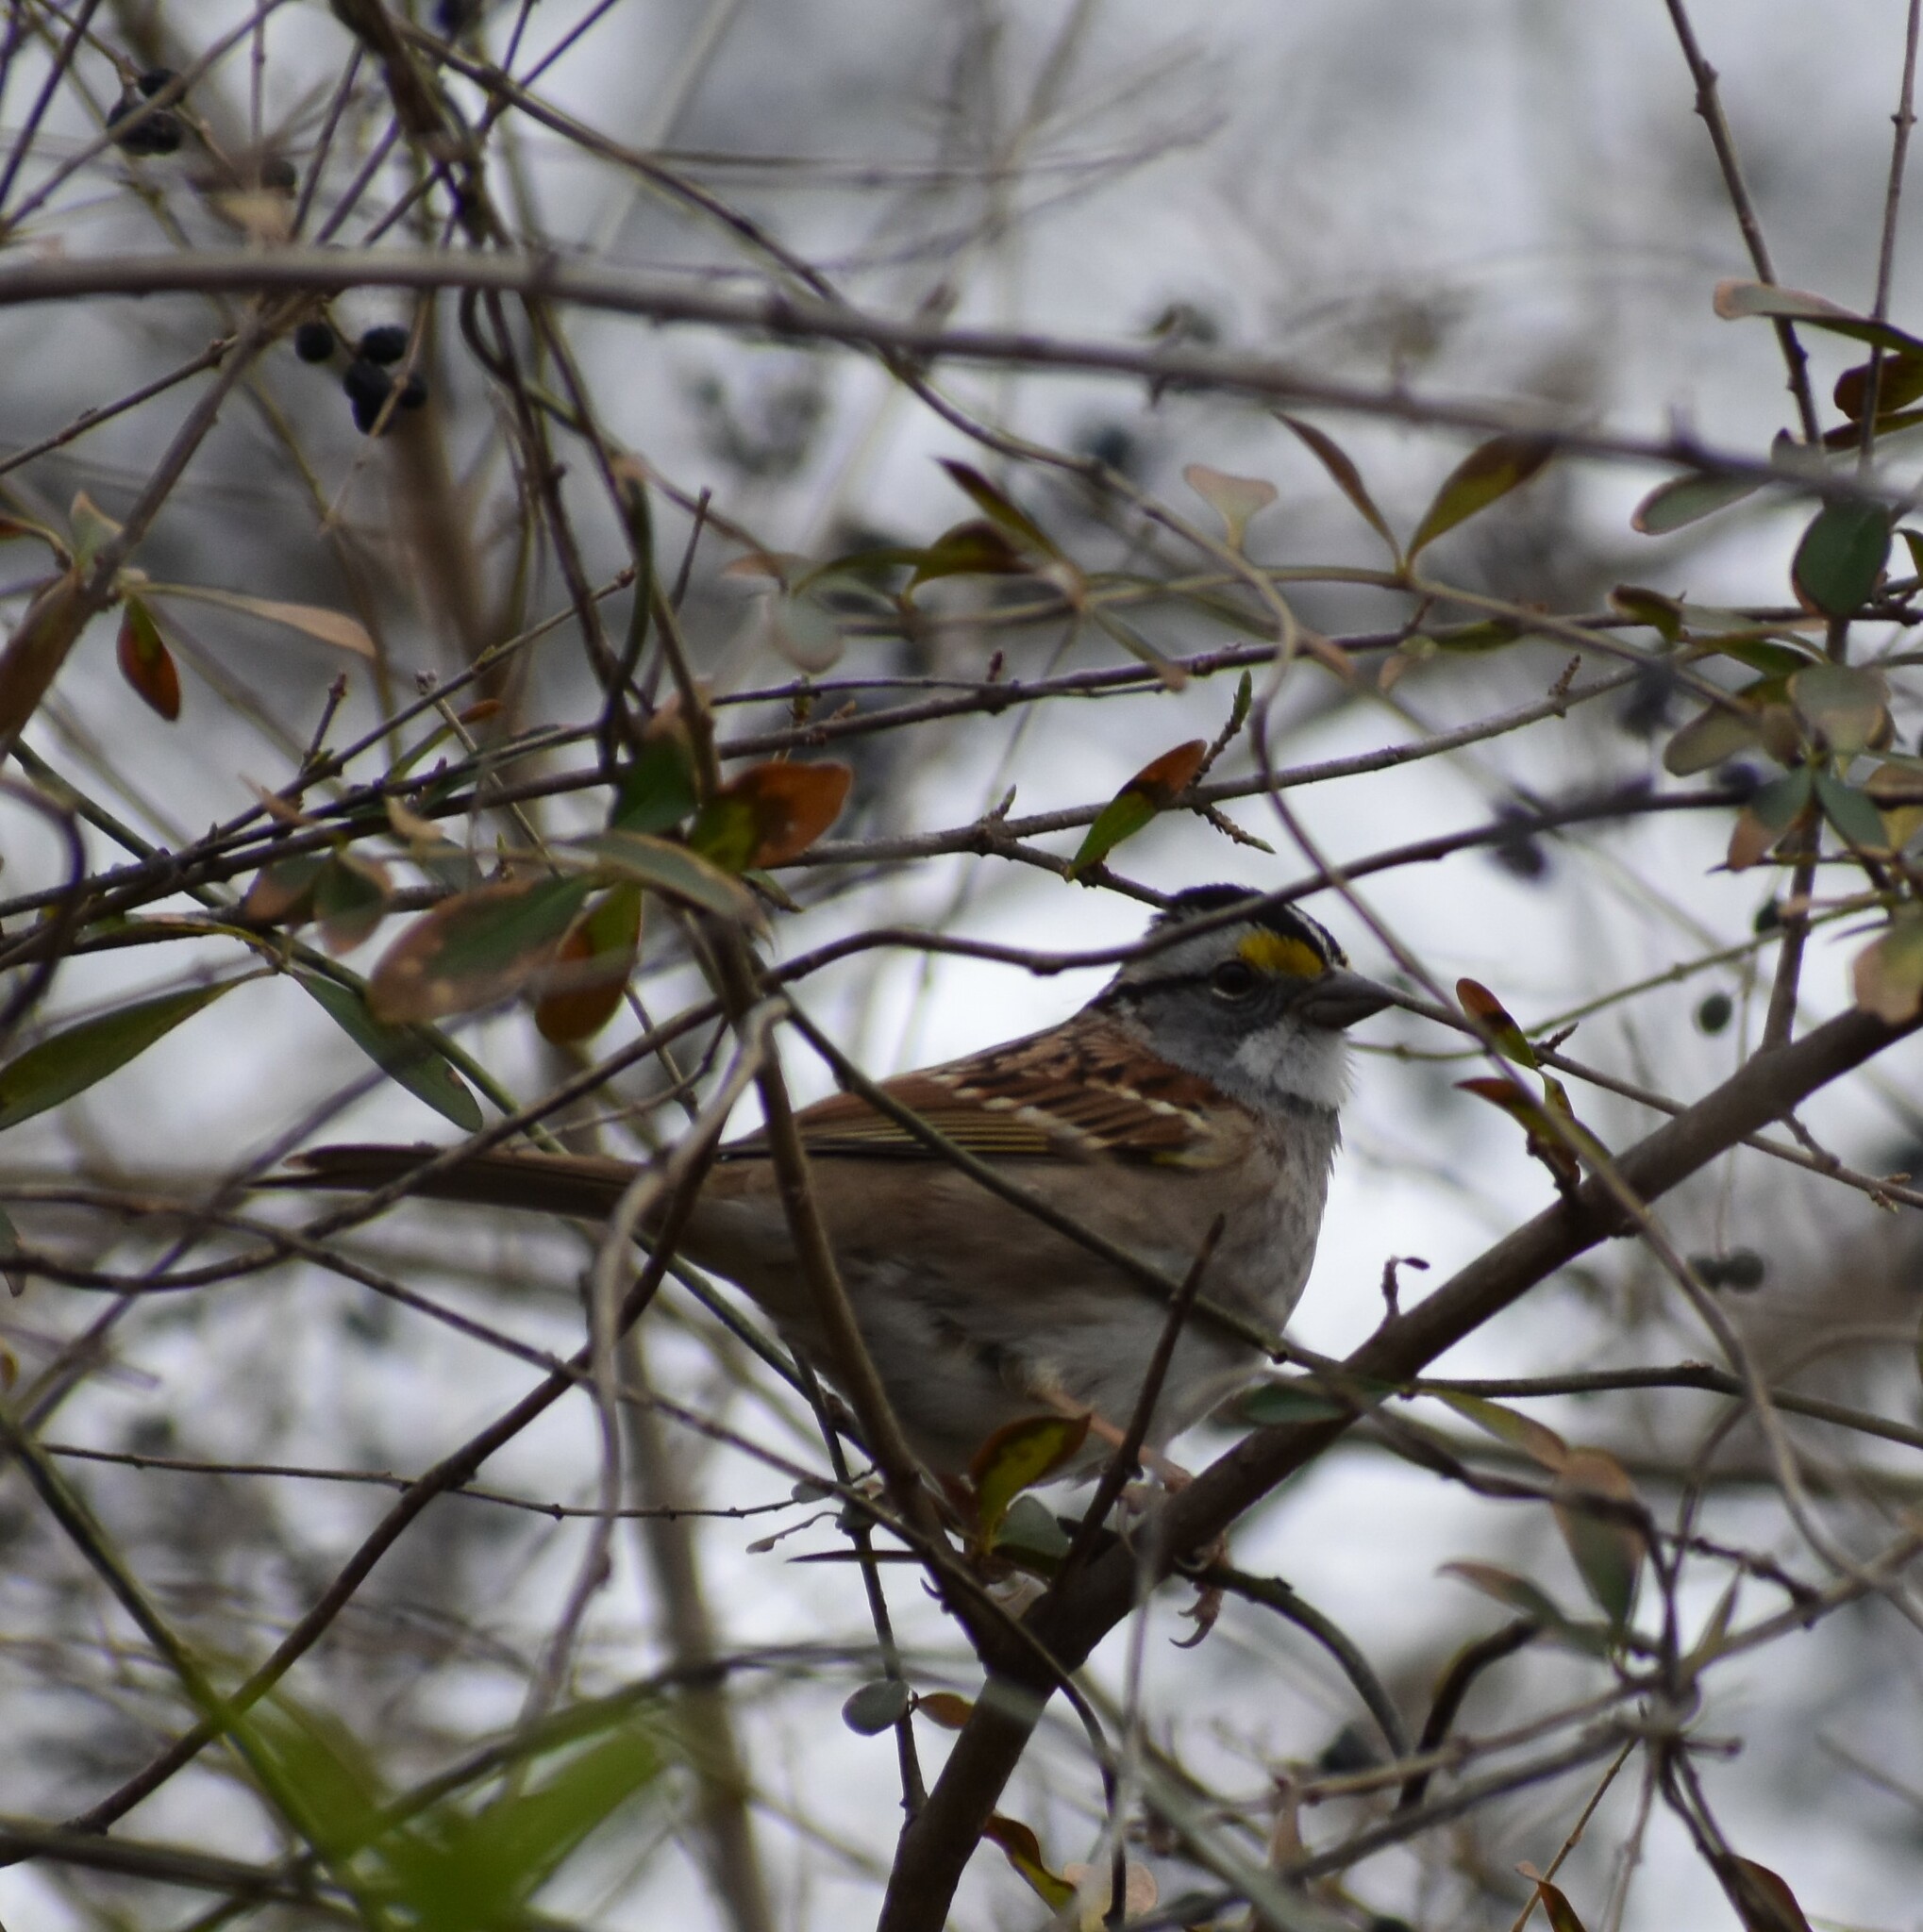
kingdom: Animalia
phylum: Chordata
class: Aves
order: Passeriformes
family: Passerellidae
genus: Zonotrichia
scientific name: Zonotrichia albicollis
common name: White-throated sparrow
